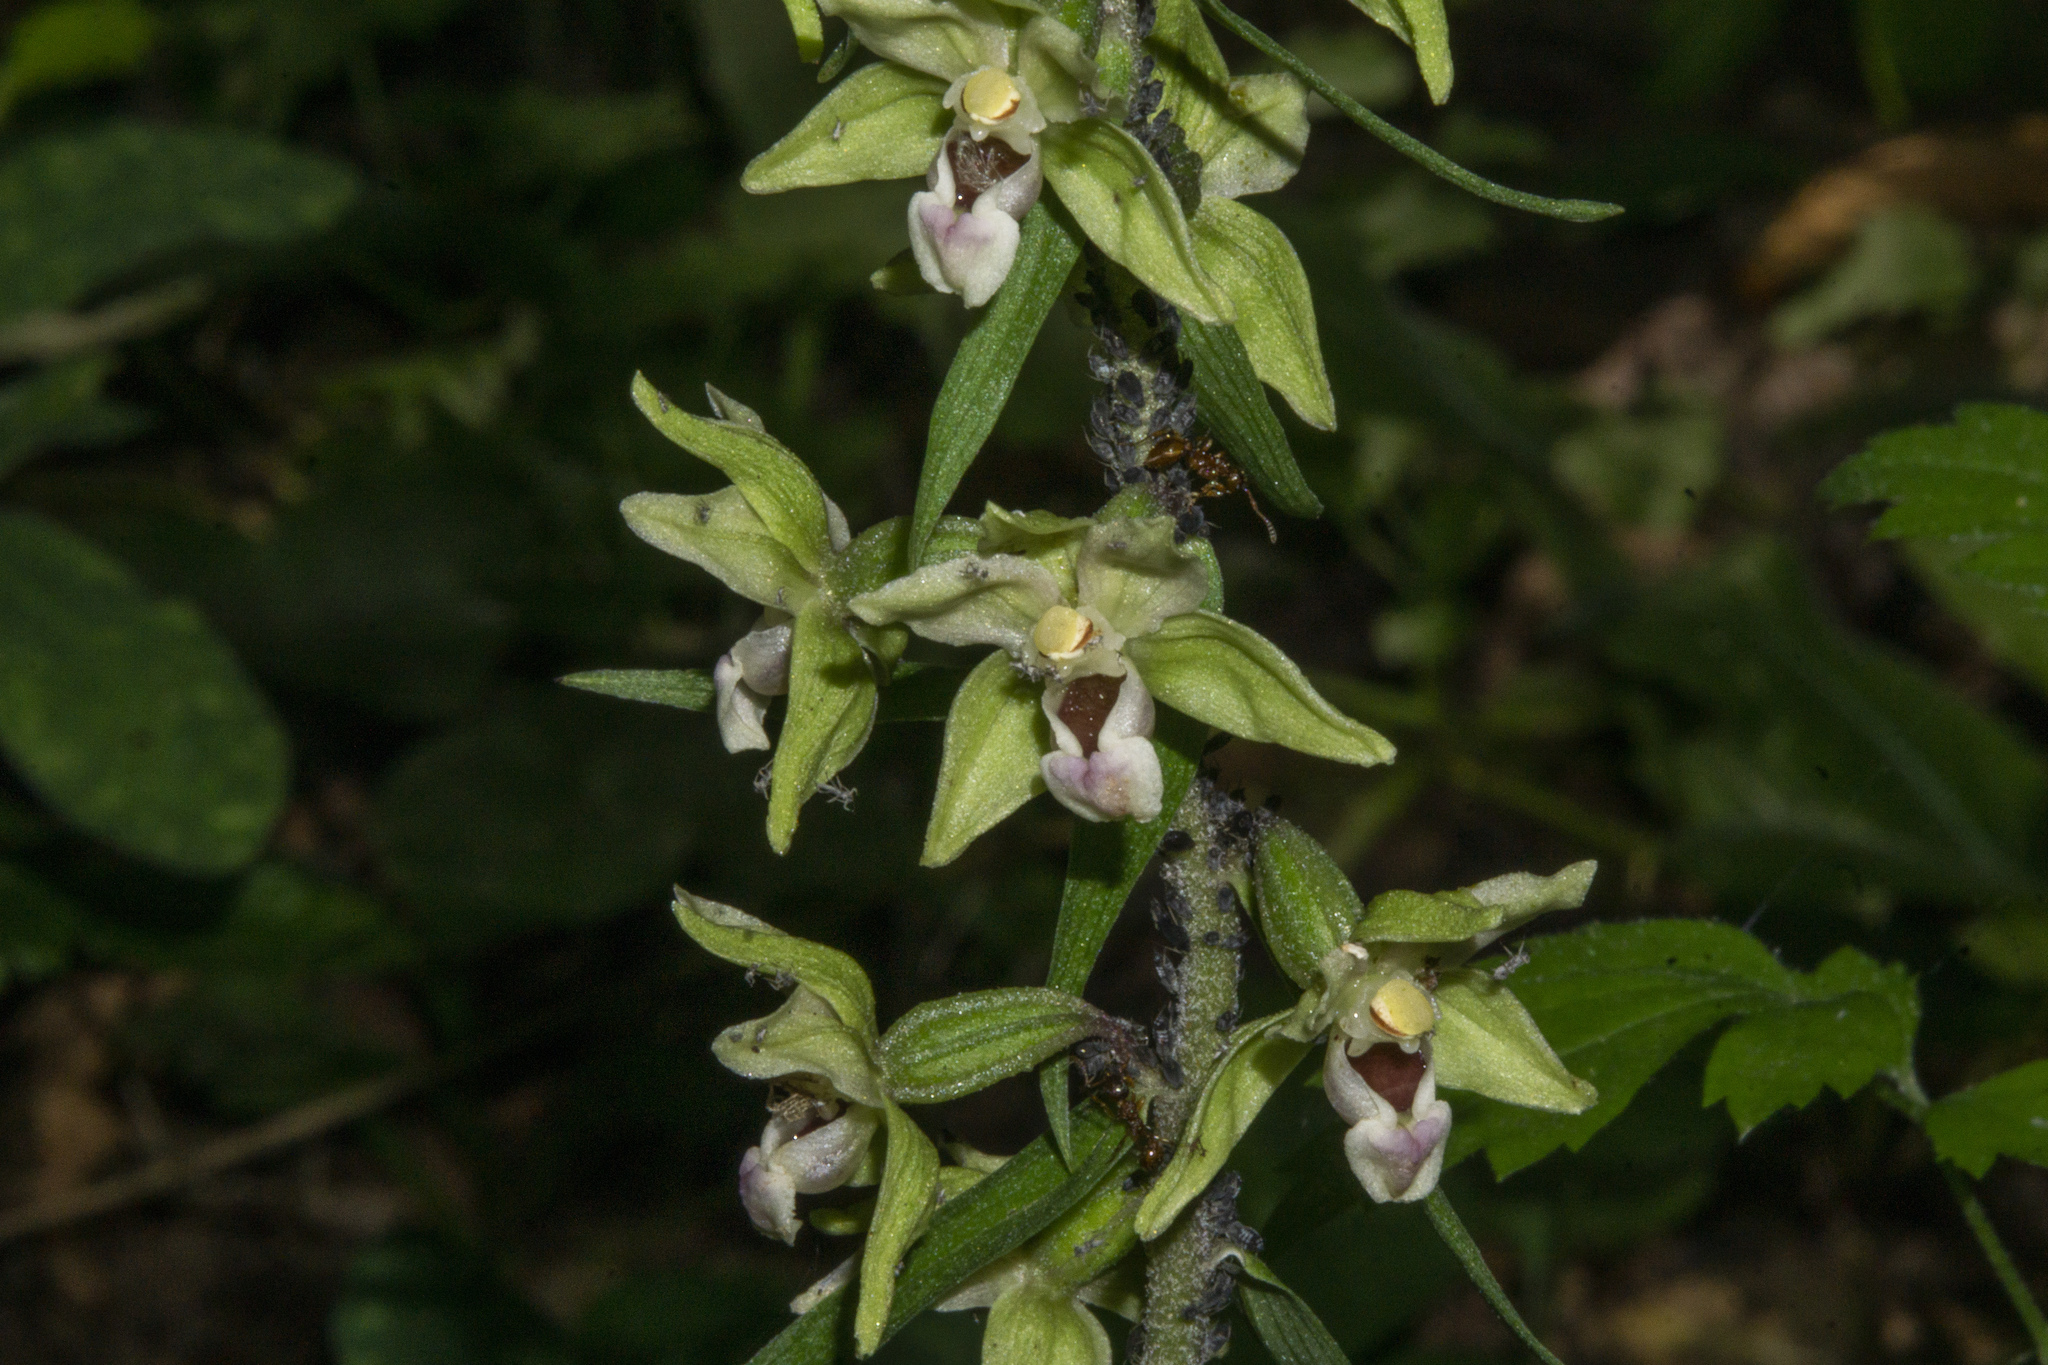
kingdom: Plantae
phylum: Tracheophyta
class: Liliopsida
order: Asparagales
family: Orchidaceae
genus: Epipactis
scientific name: Epipactis purpurata
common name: Violet helleborine
